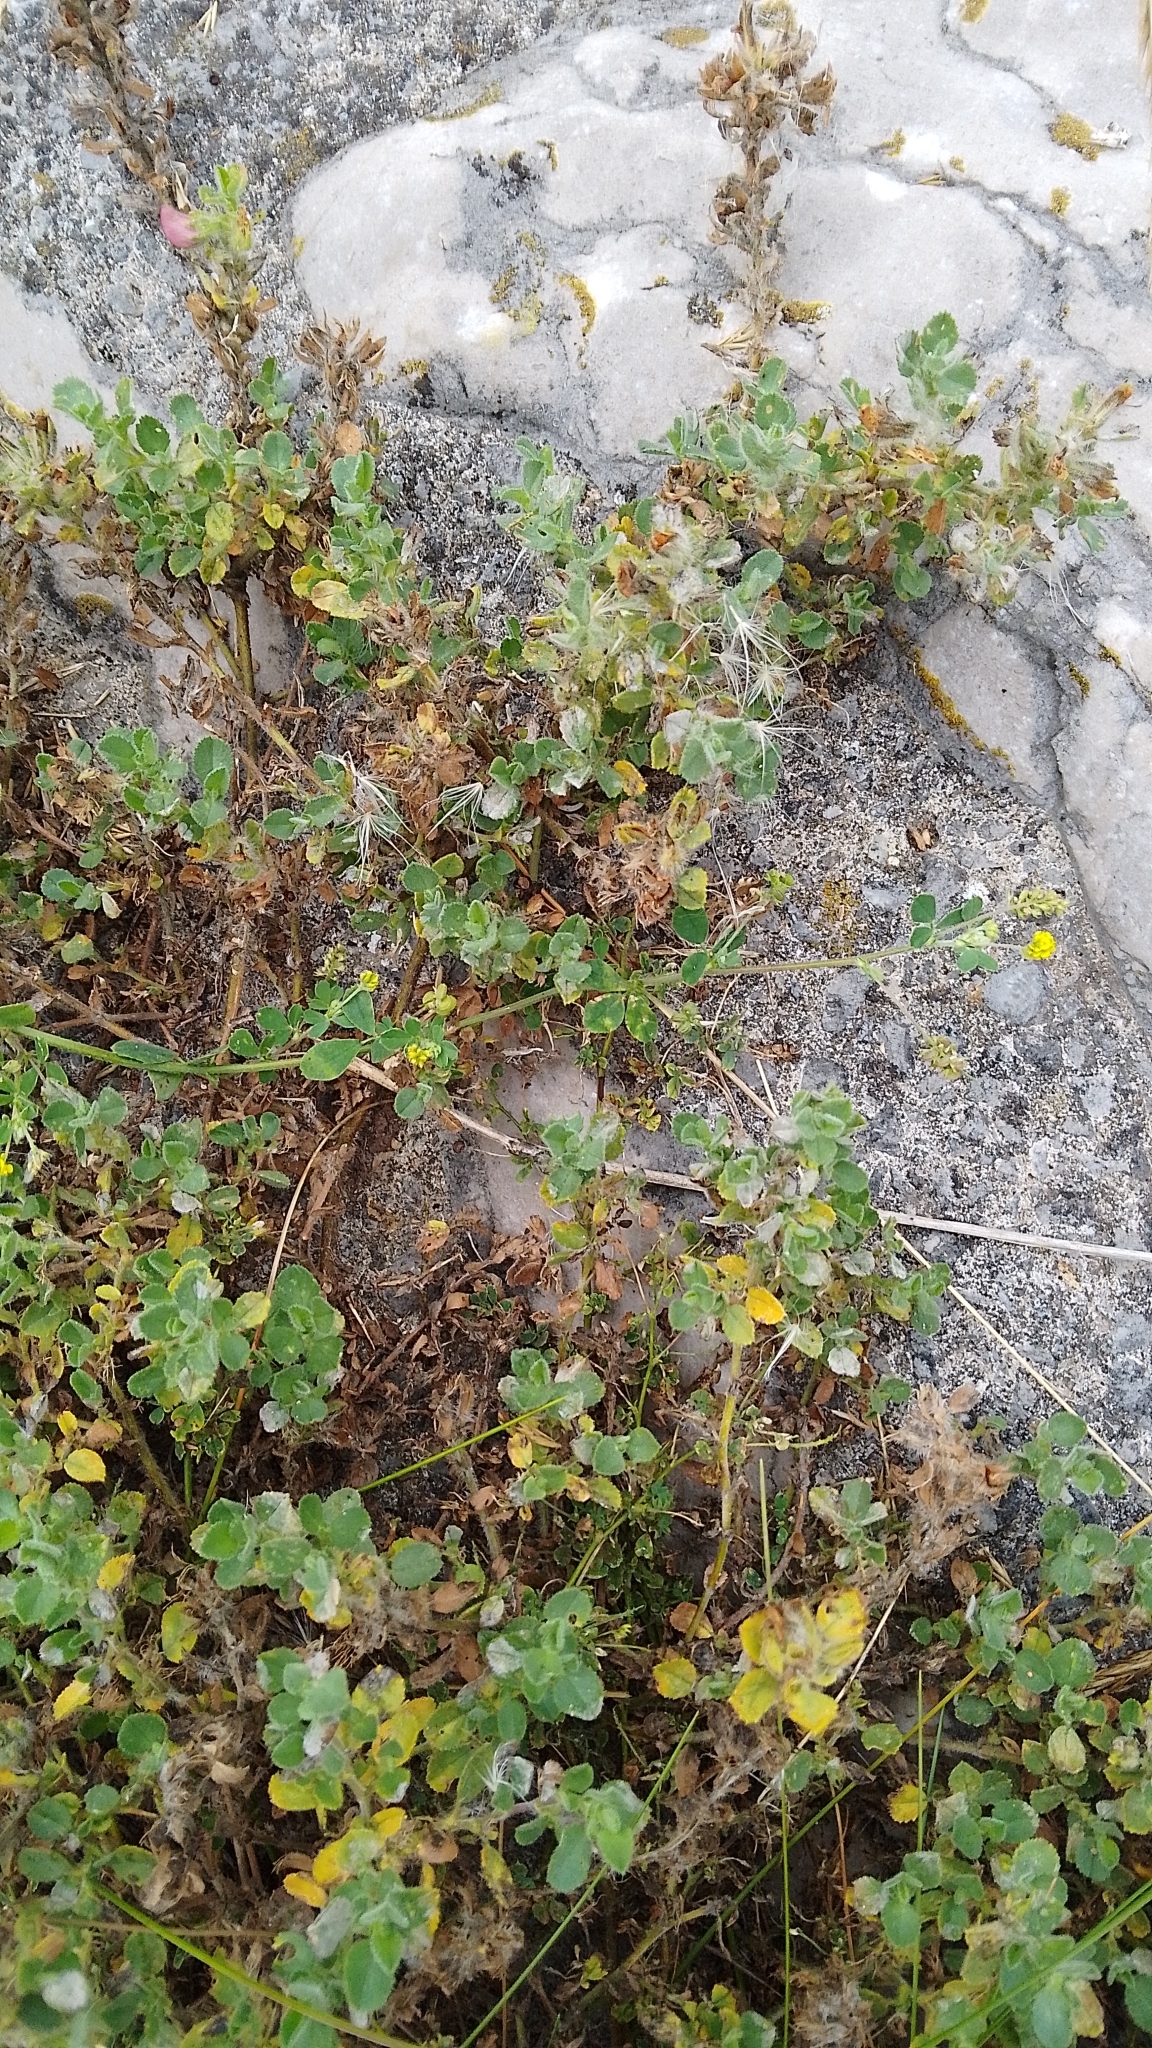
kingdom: Plantae
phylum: Tracheophyta
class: Magnoliopsida
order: Fabales
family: Fabaceae
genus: Medicago
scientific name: Medicago lupulina
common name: Black medick
